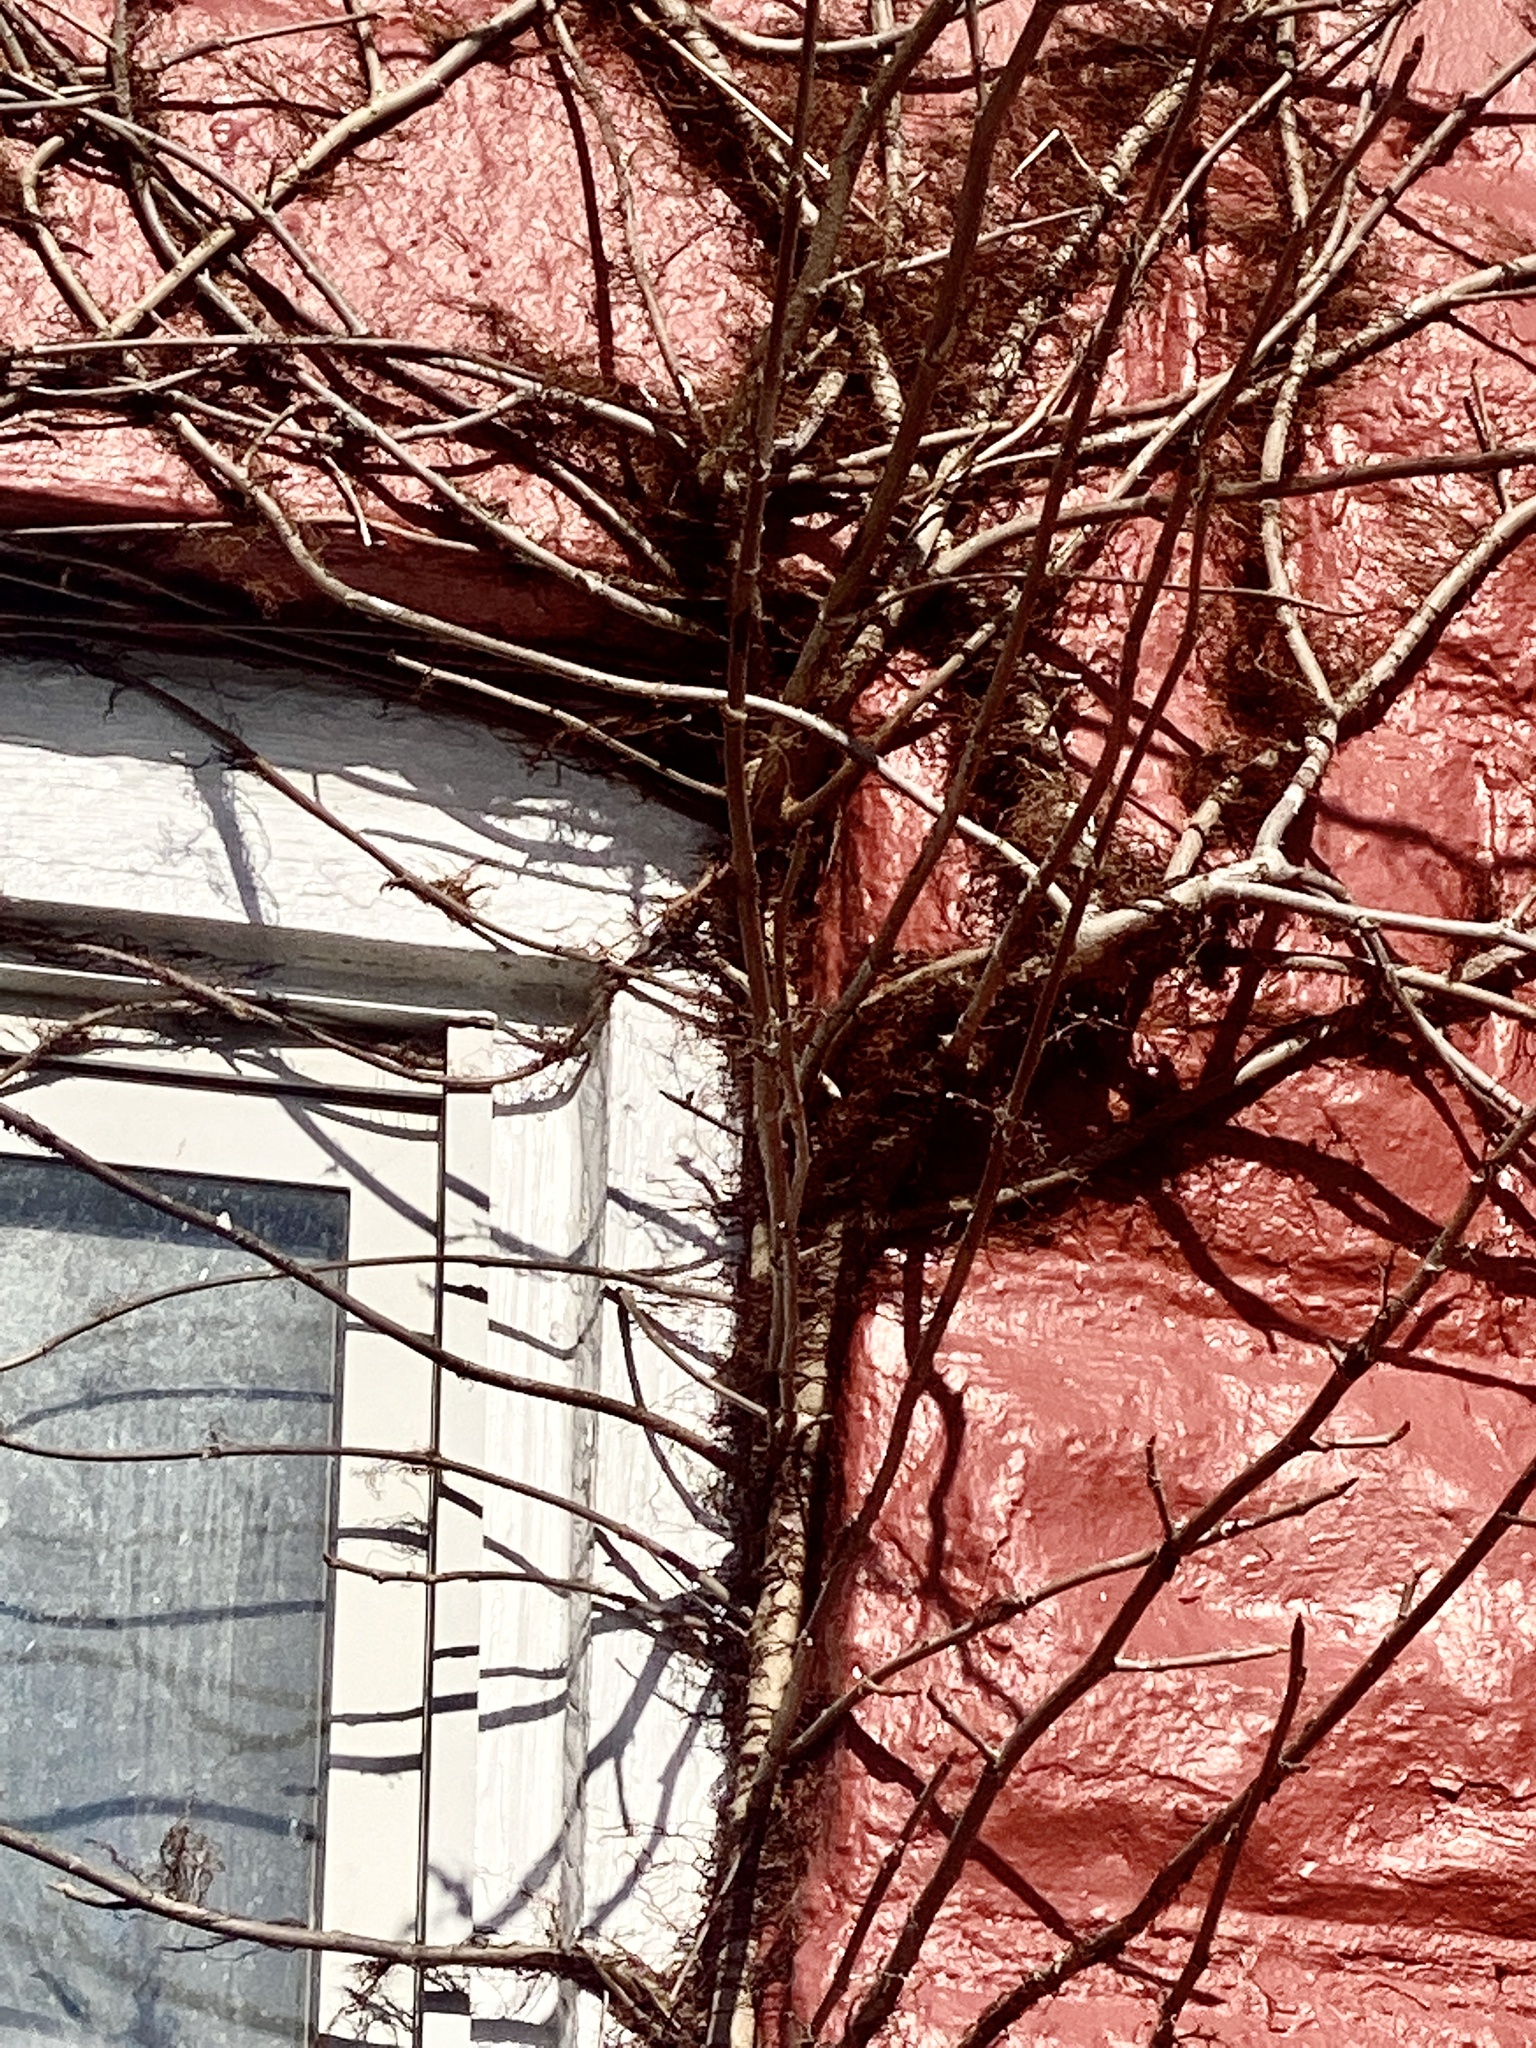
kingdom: Plantae
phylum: Tracheophyta
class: Magnoliopsida
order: Sapindales
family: Anacardiaceae
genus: Toxicodendron
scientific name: Toxicodendron radicans
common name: Poison ivy
